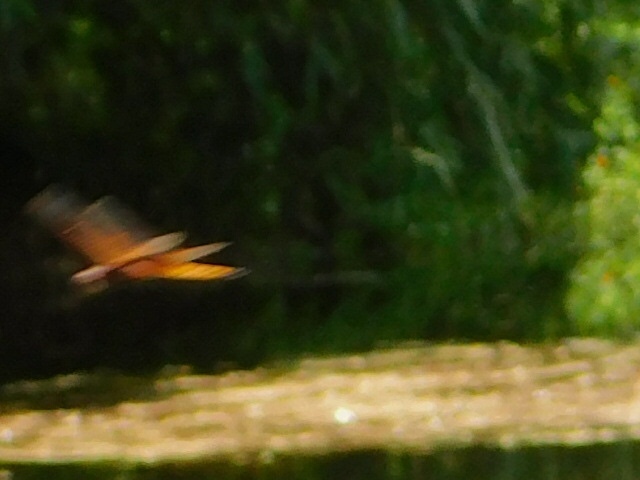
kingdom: Animalia
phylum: Arthropoda
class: Insecta
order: Odonata
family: Libellulidae
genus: Miathyria
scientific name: Miathyria marcella
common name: Hyacinth glider
